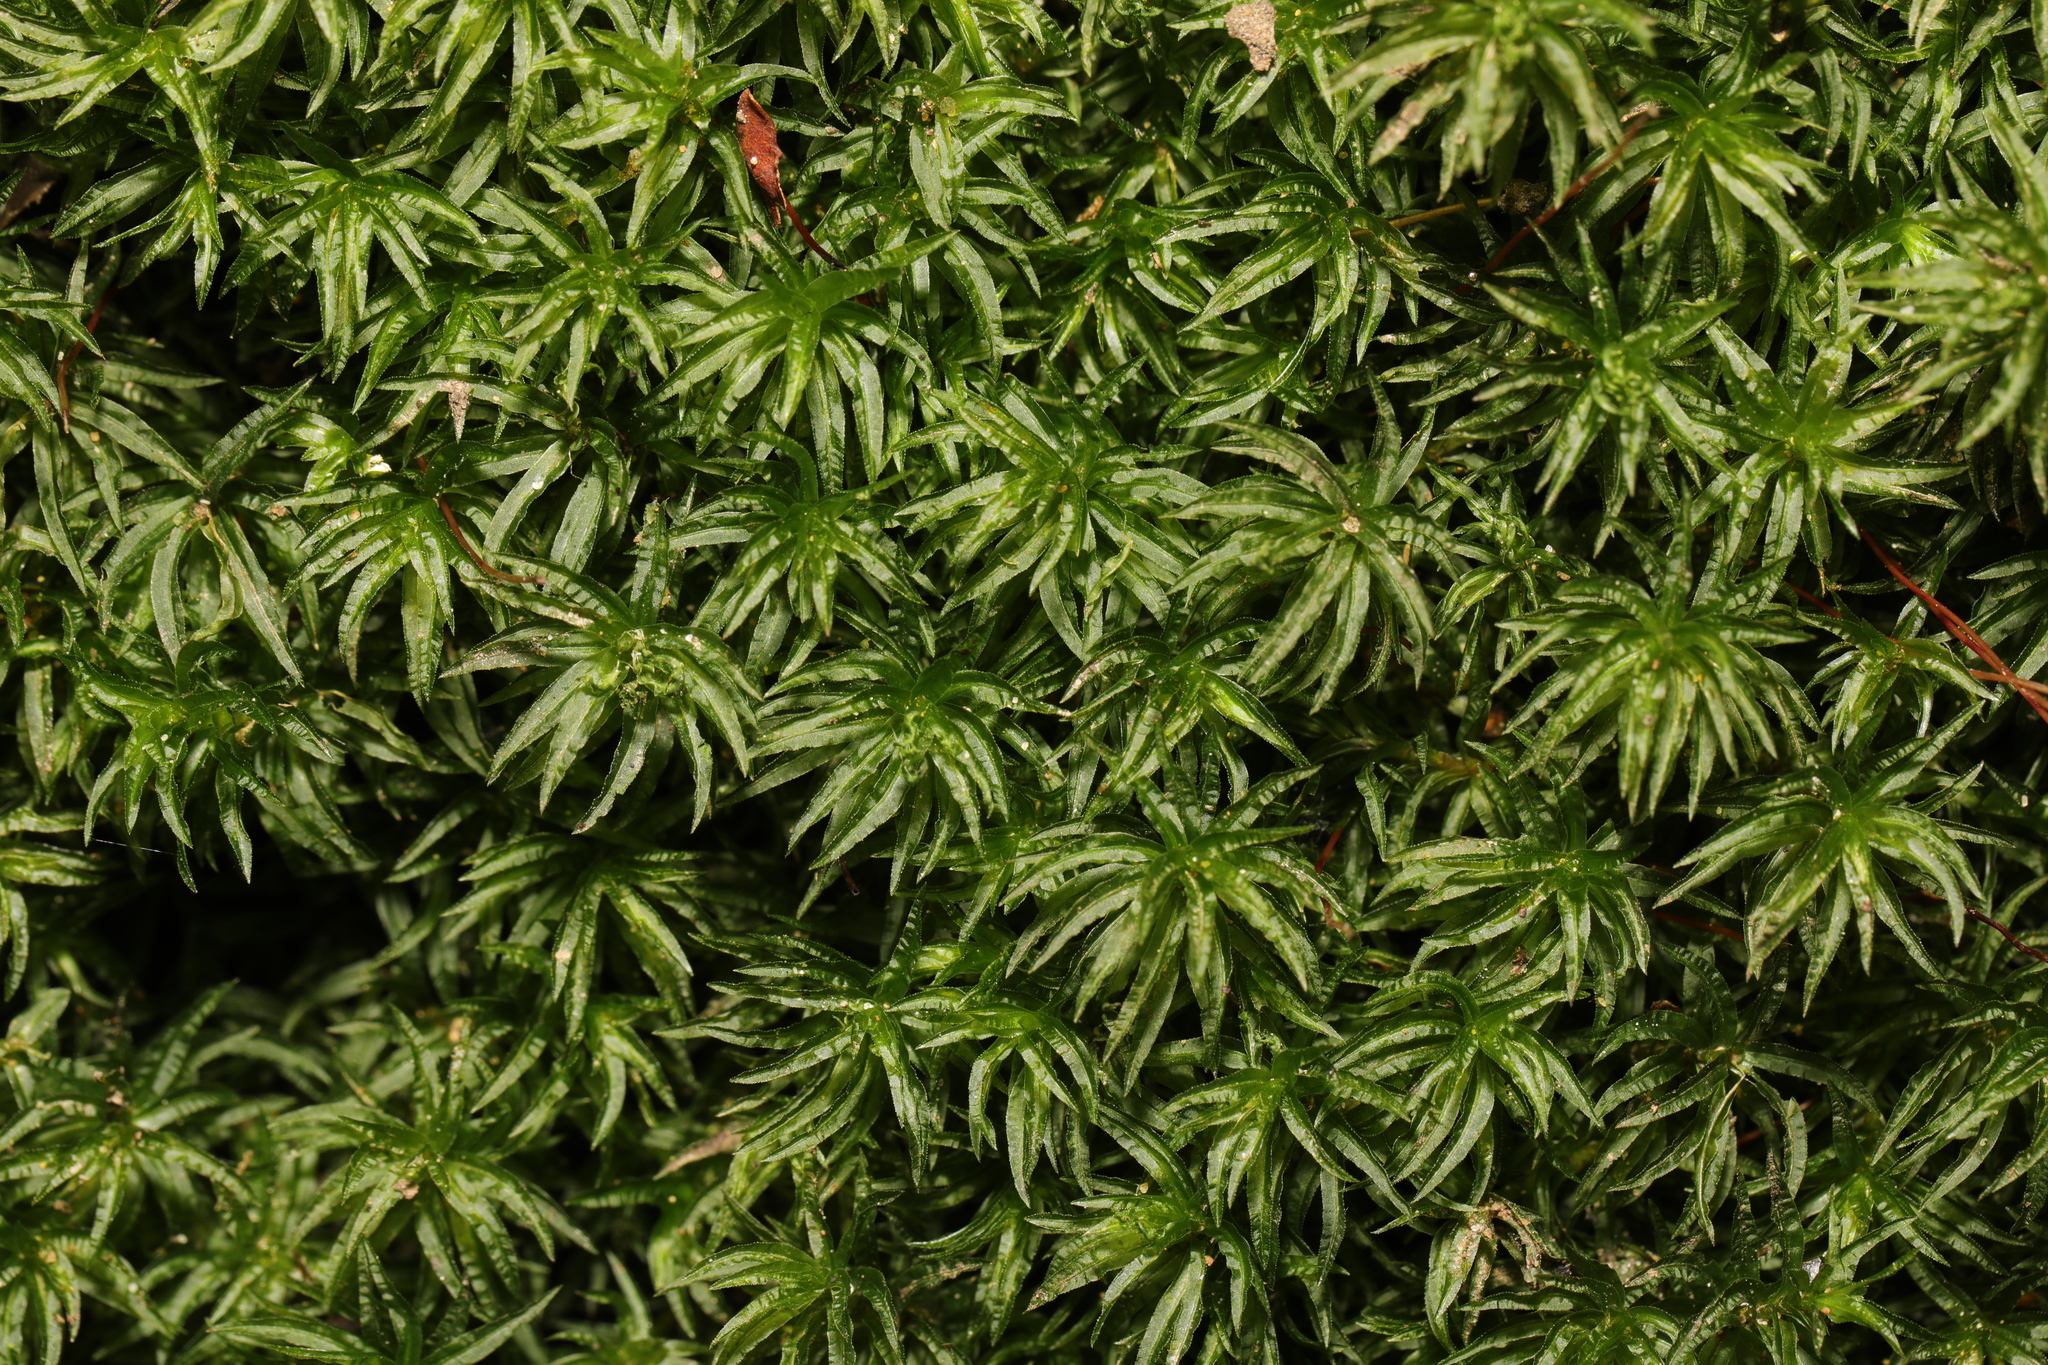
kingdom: Plantae
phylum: Bryophyta
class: Polytrichopsida
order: Polytrichales
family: Polytrichaceae
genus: Atrichum
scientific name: Atrichum undulatum
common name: Common smoothcap
